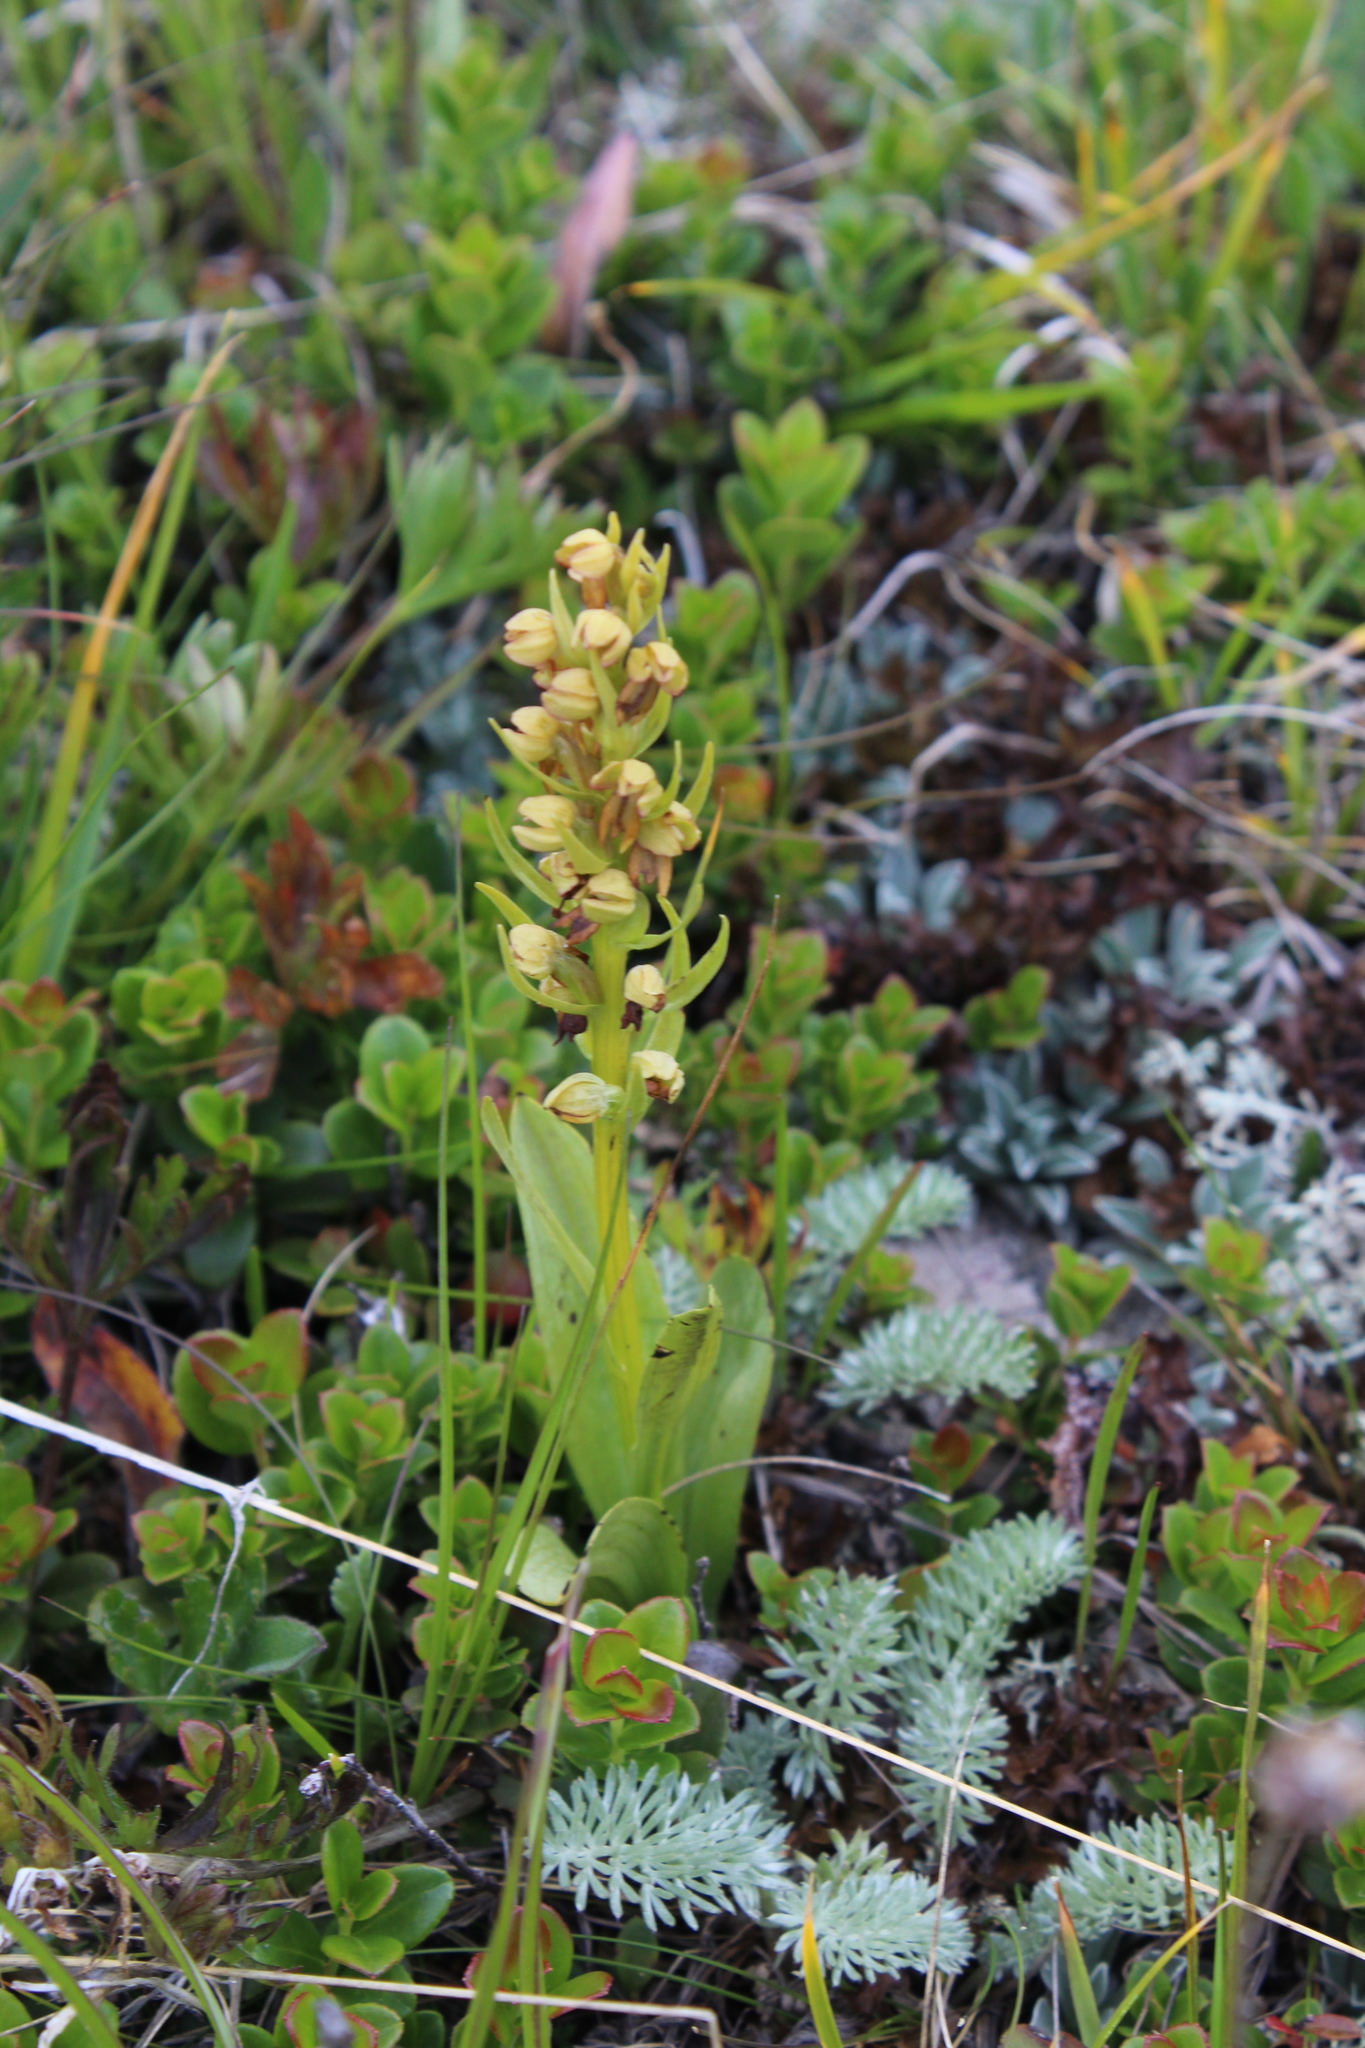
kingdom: Plantae
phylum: Tracheophyta
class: Liliopsida
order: Asparagales
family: Orchidaceae
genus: Dactylorhiza
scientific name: Dactylorhiza viridis
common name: Longbract frog orchid
